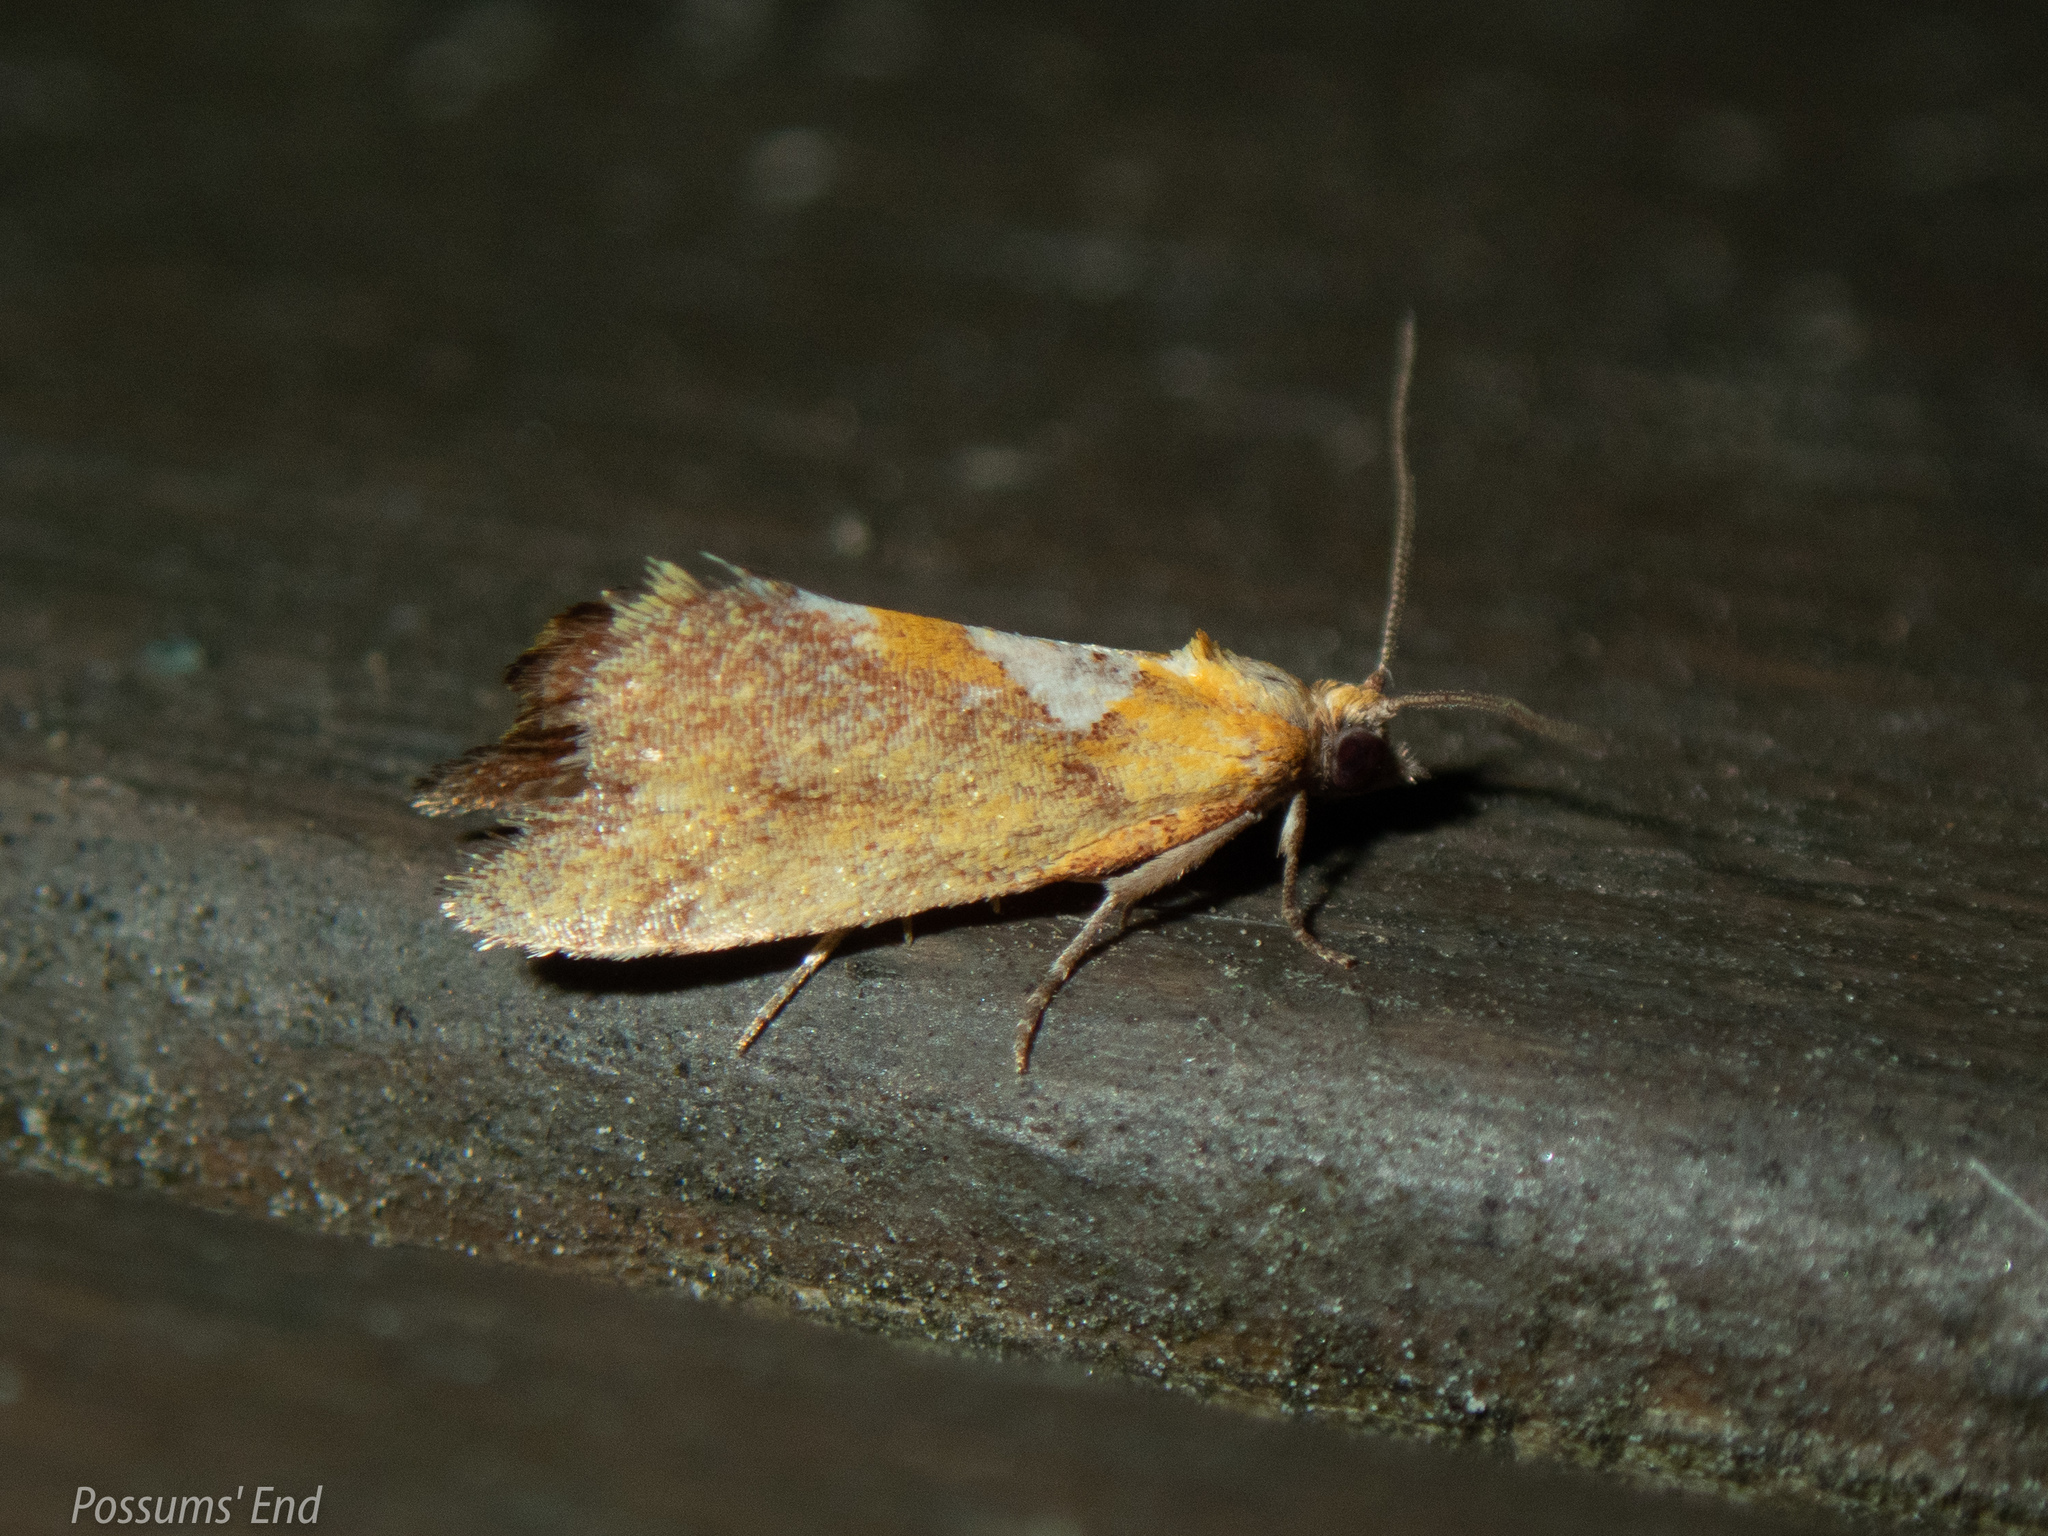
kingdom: Animalia
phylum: Arthropoda
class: Insecta
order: Lepidoptera
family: Tortricidae
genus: Pyrgotis
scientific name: Pyrgotis pyramidias
